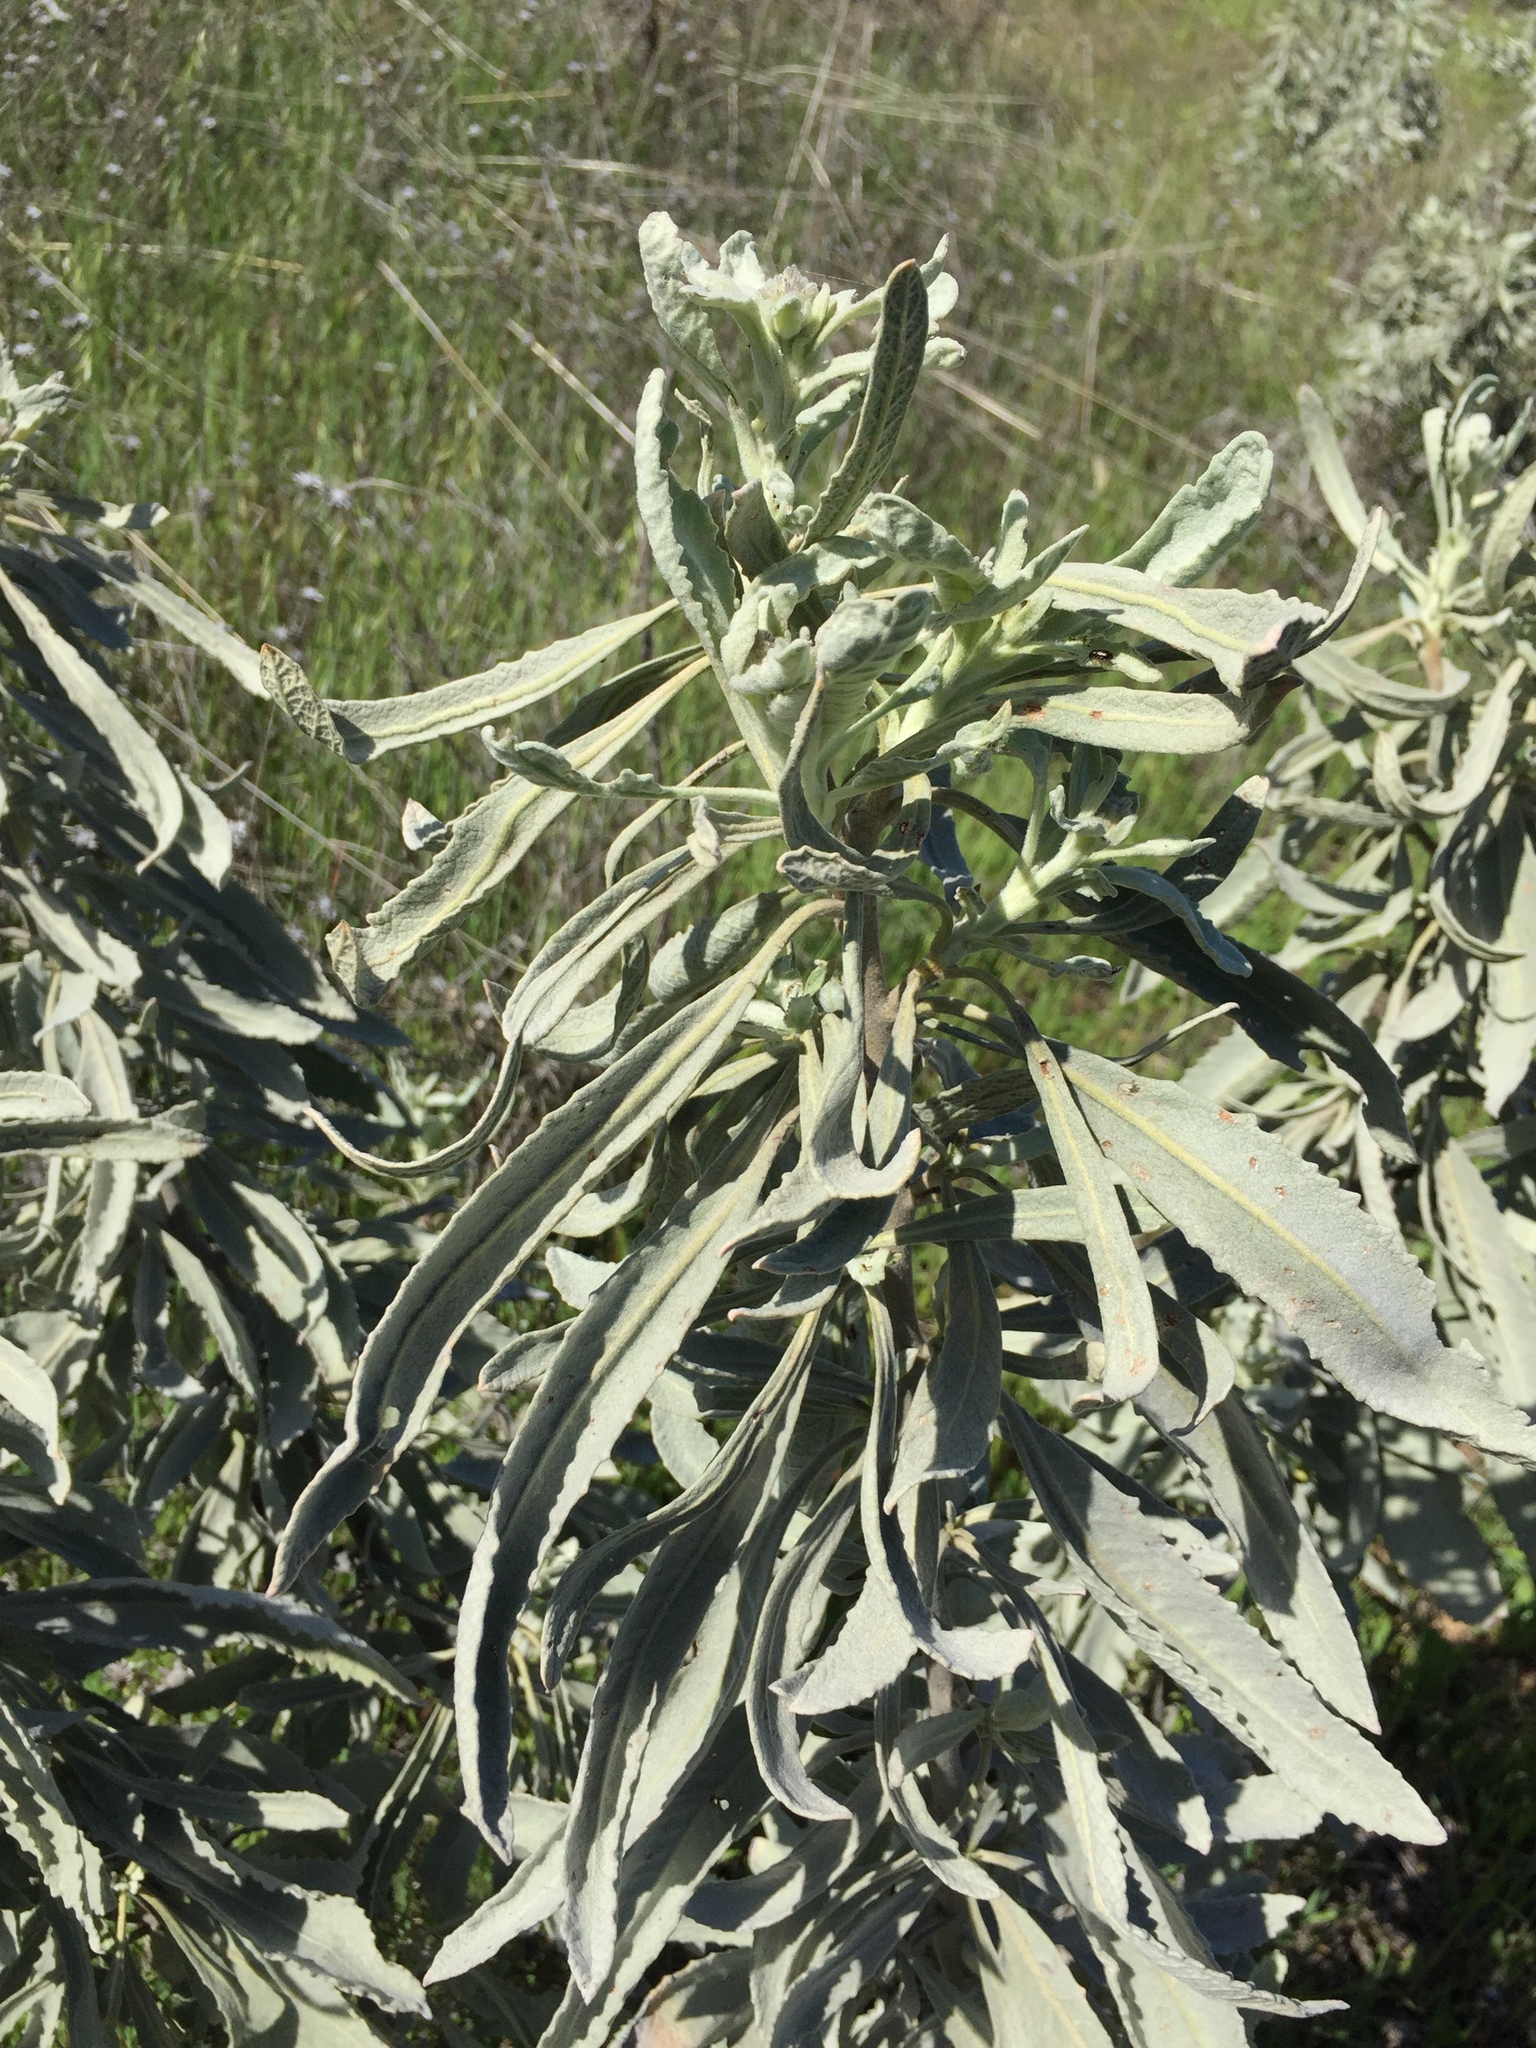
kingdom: Plantae
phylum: Tracheophyta
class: Magnoliopsida
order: Boraginales
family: Namaceae
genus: Eriodictyon
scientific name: Eriodictyon tomentosum
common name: Woolly yerba-santa
